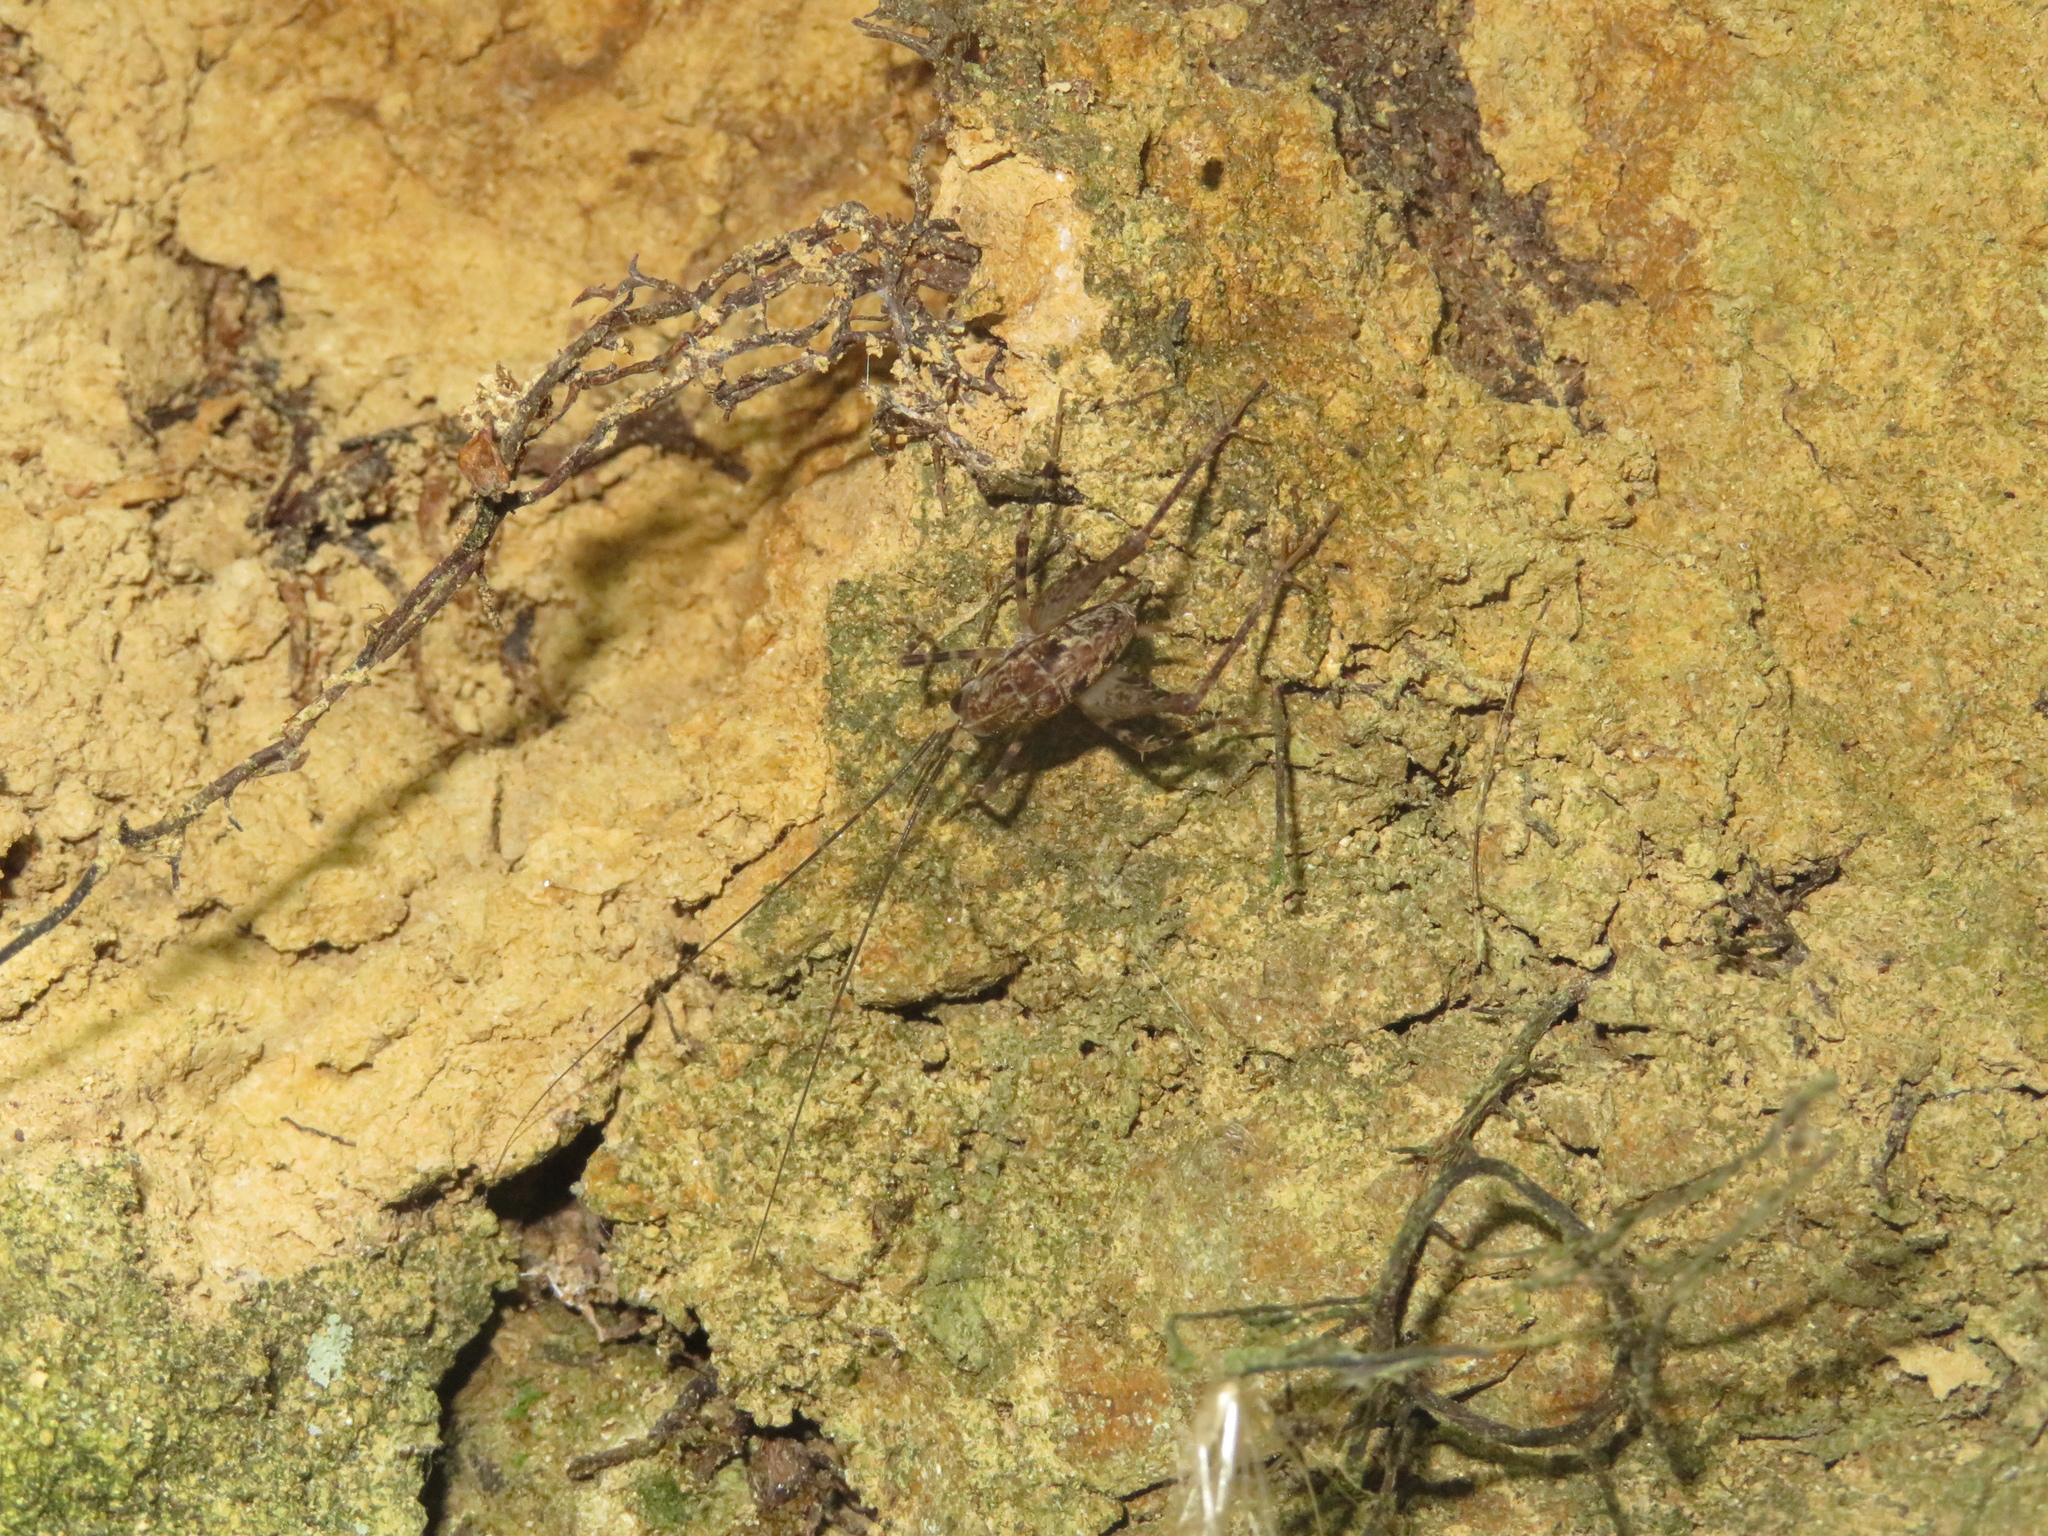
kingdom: Animalia
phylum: Arthropoda
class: Insecta
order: Orthoptera
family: Rhaphidophoridae
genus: Pleioplectron
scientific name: Pleioplectron hudsoni
